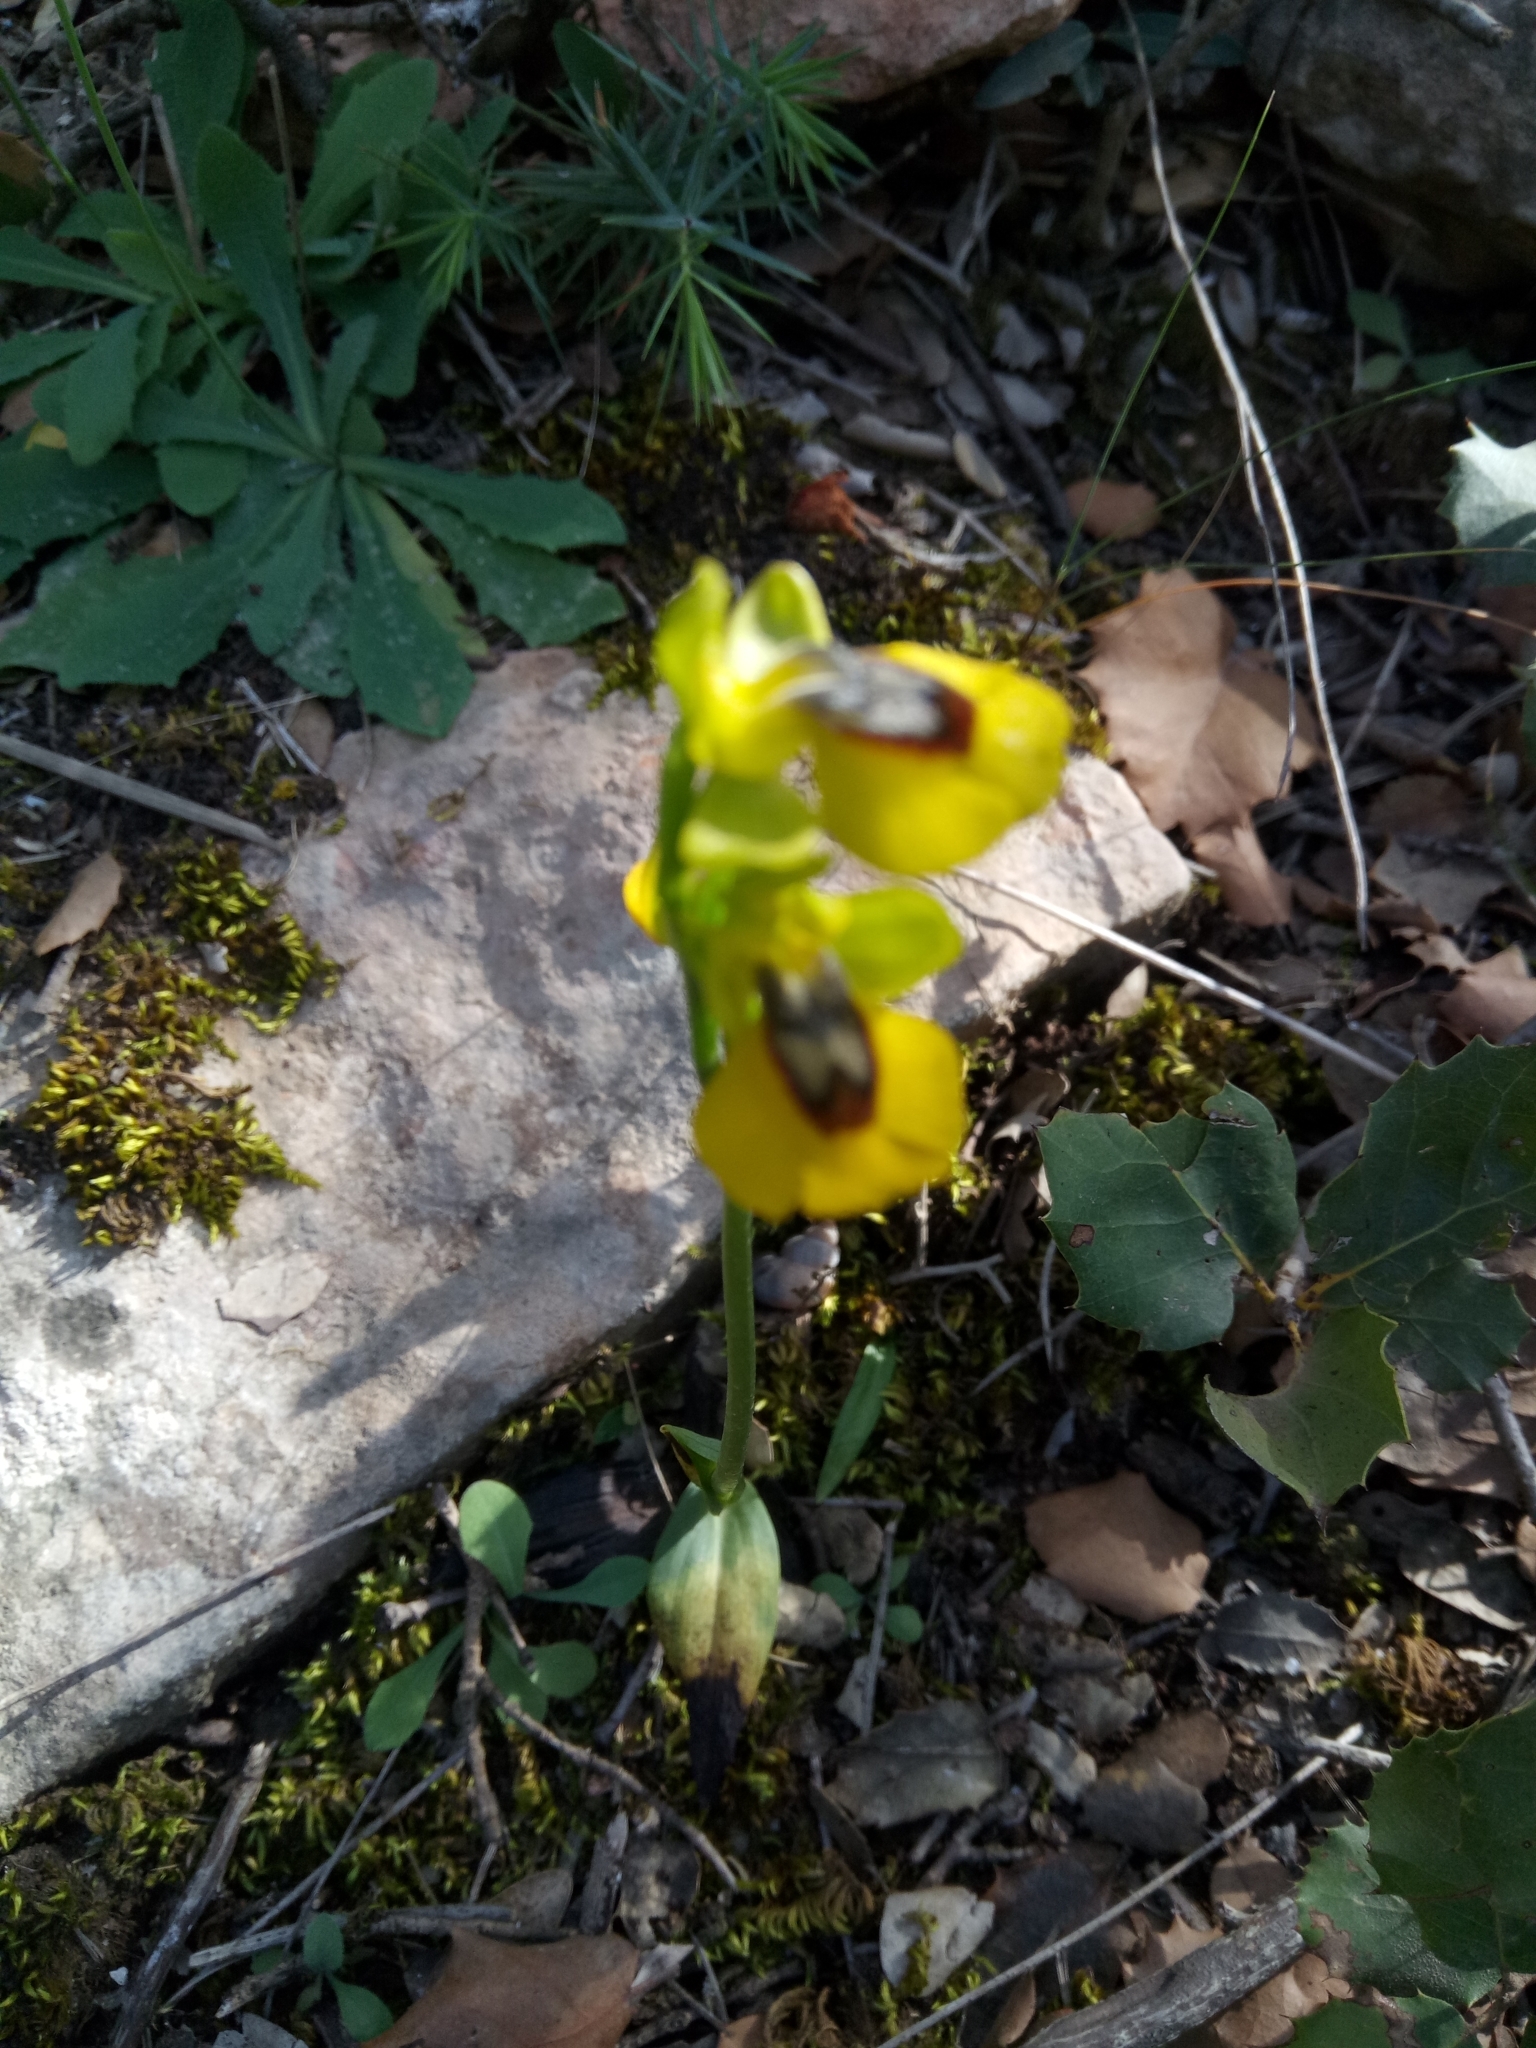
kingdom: Plantae
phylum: Tracheophyta
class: Liliopsida
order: Asparagales
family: Orchidaceae
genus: Ophrys
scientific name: Ophrys lutea
